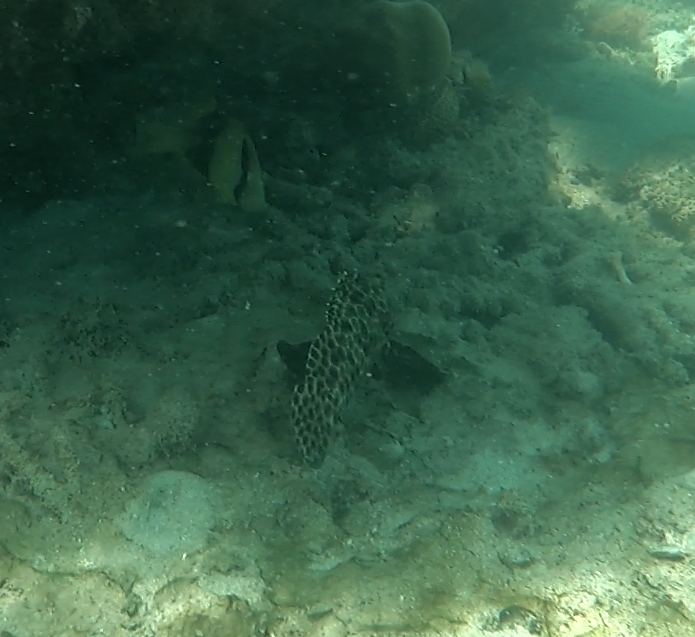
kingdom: Animalia
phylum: Chordata
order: Perciformes
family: Serranidae
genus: Epinephelus
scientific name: Epinephelus quoyanus
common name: Longfin grouper
